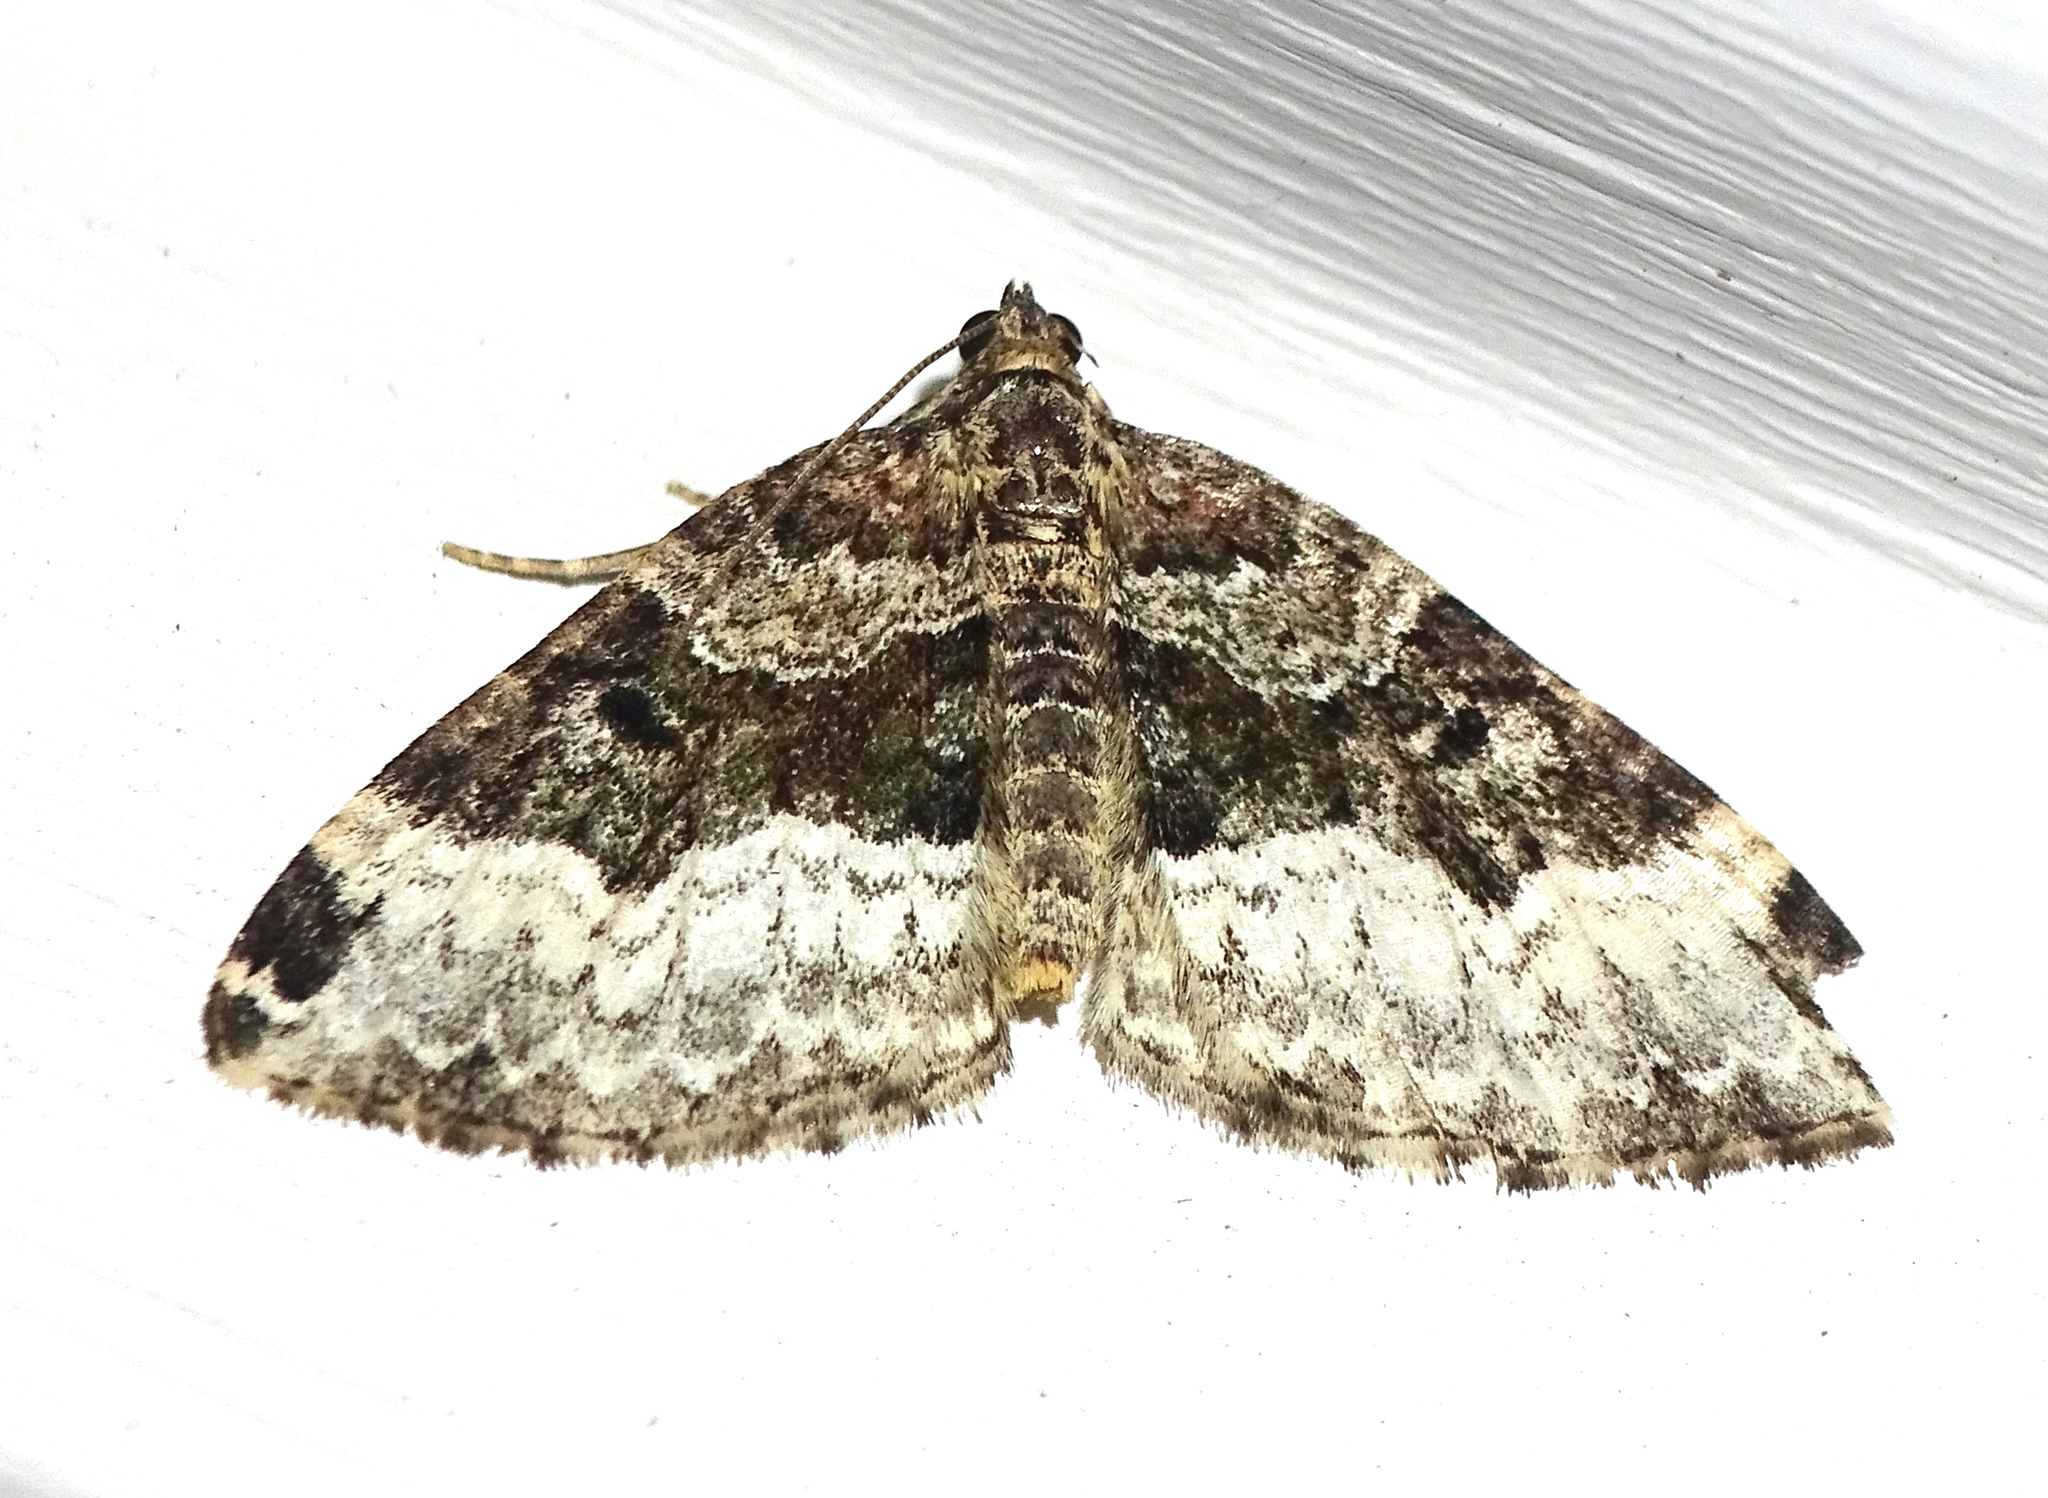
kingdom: Animalia
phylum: Arthropoda
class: Insecta
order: Lepidoptera
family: Geometridae
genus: Euphyia
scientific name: Euphyia intermediata
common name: Sharp-angled carpet
